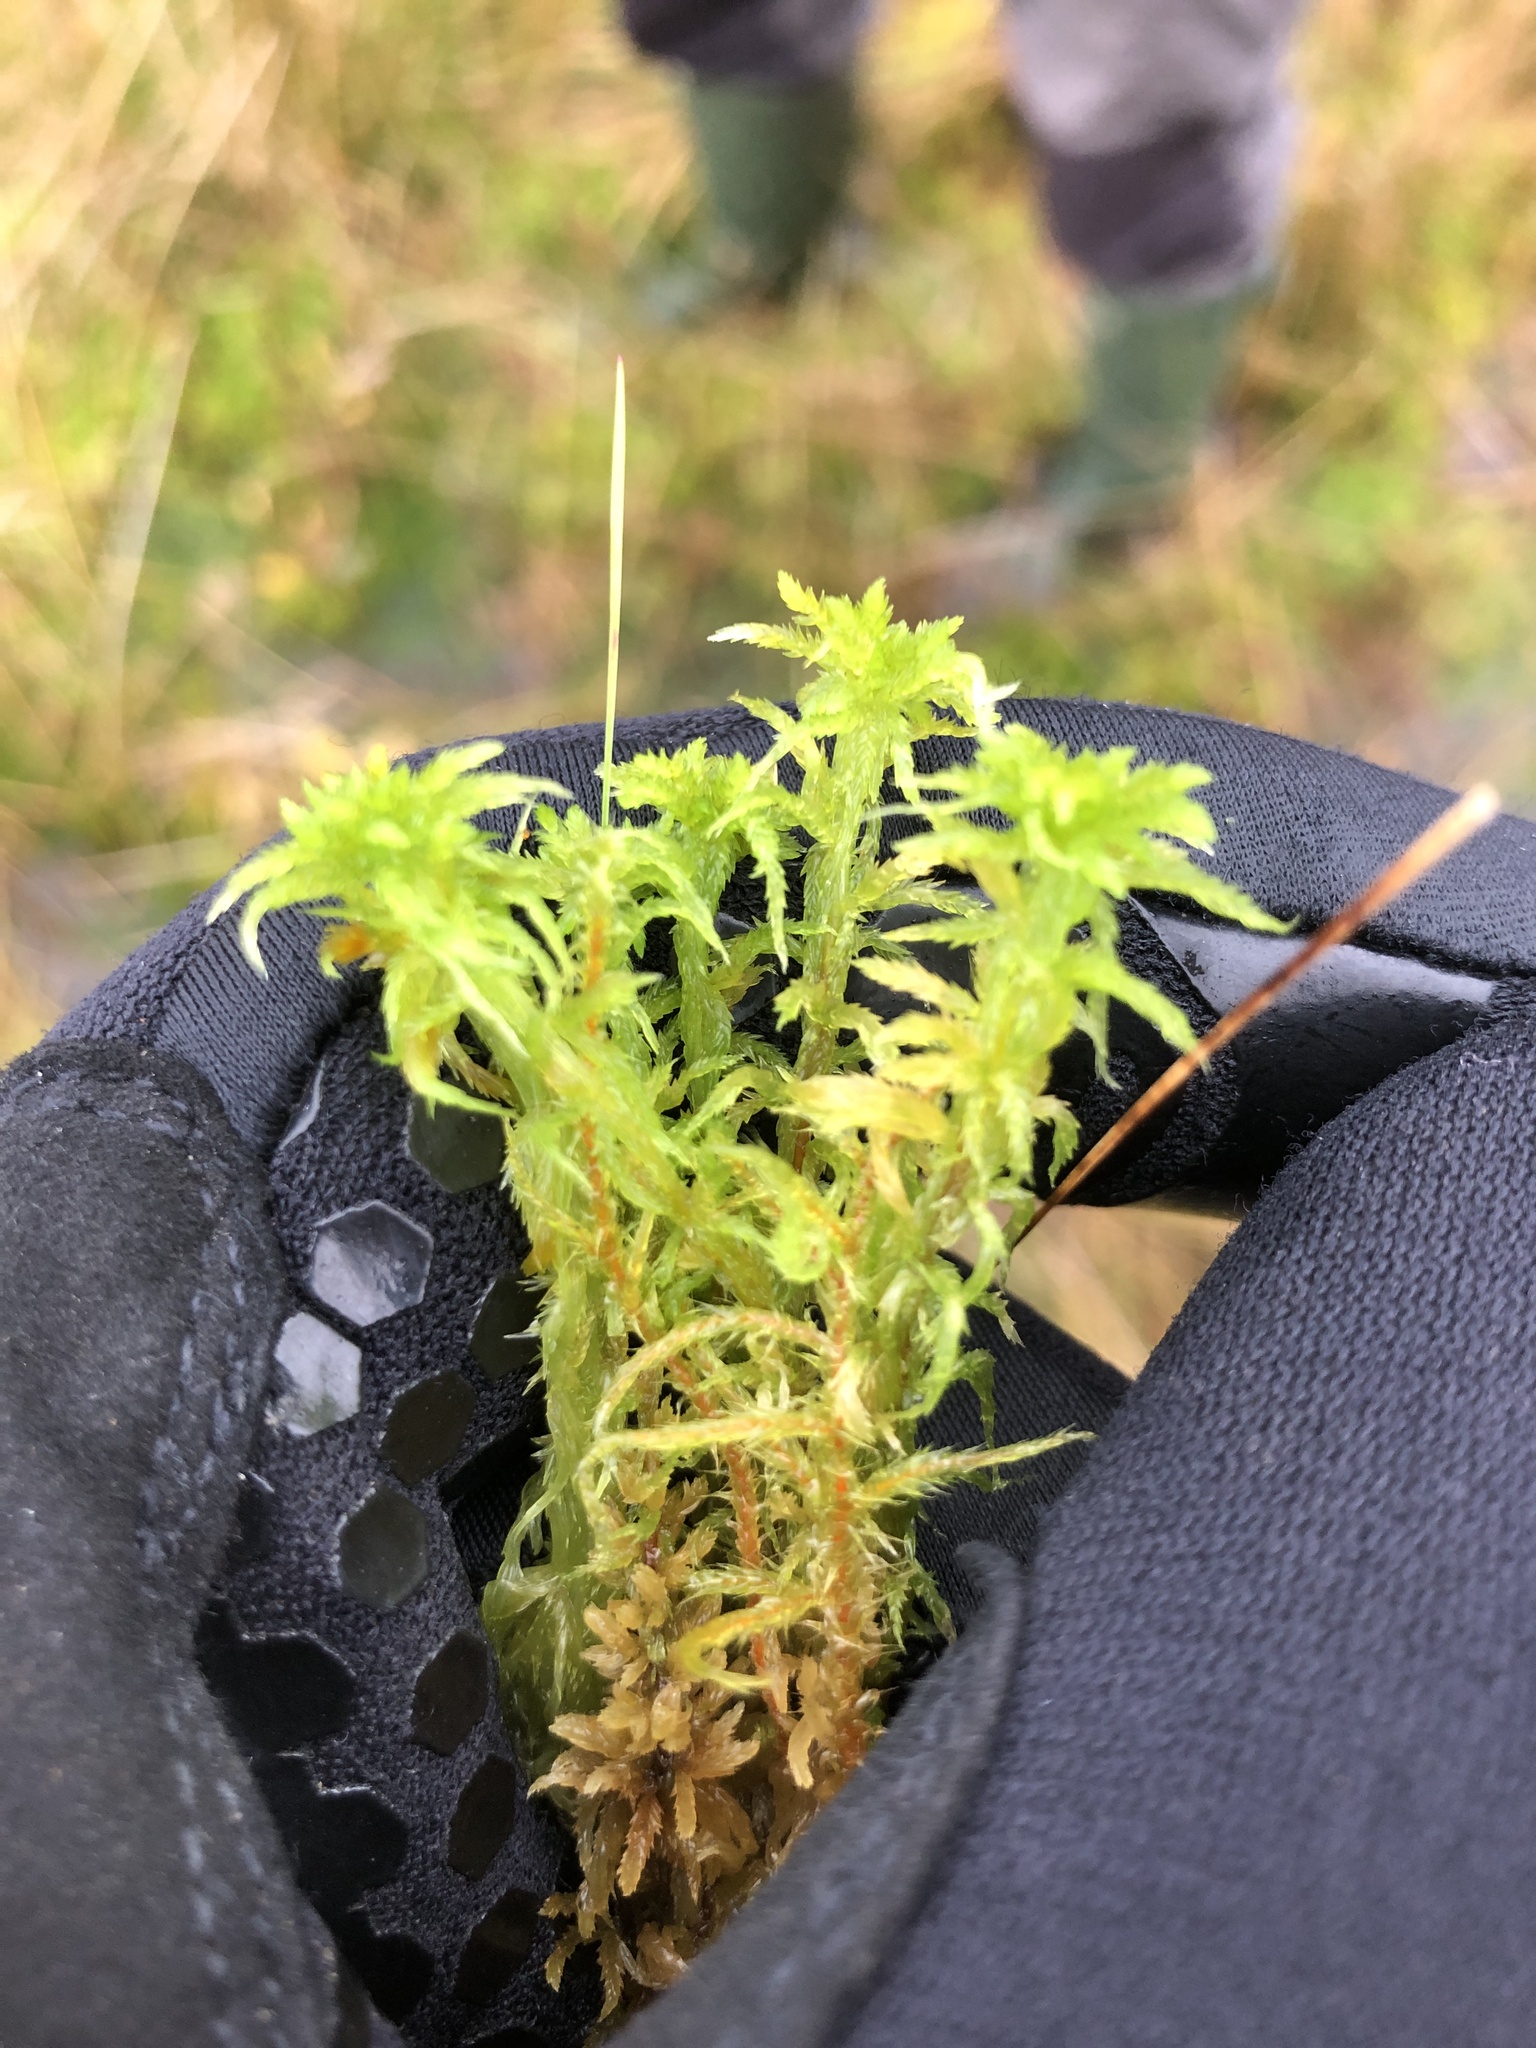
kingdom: Plantae
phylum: Bryophyta
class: Sphagnopsida
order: Sphagnales
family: Sphagnaceae
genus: Sphagnum
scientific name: Sphagnum cuspidatum
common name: Feathery peat moss
